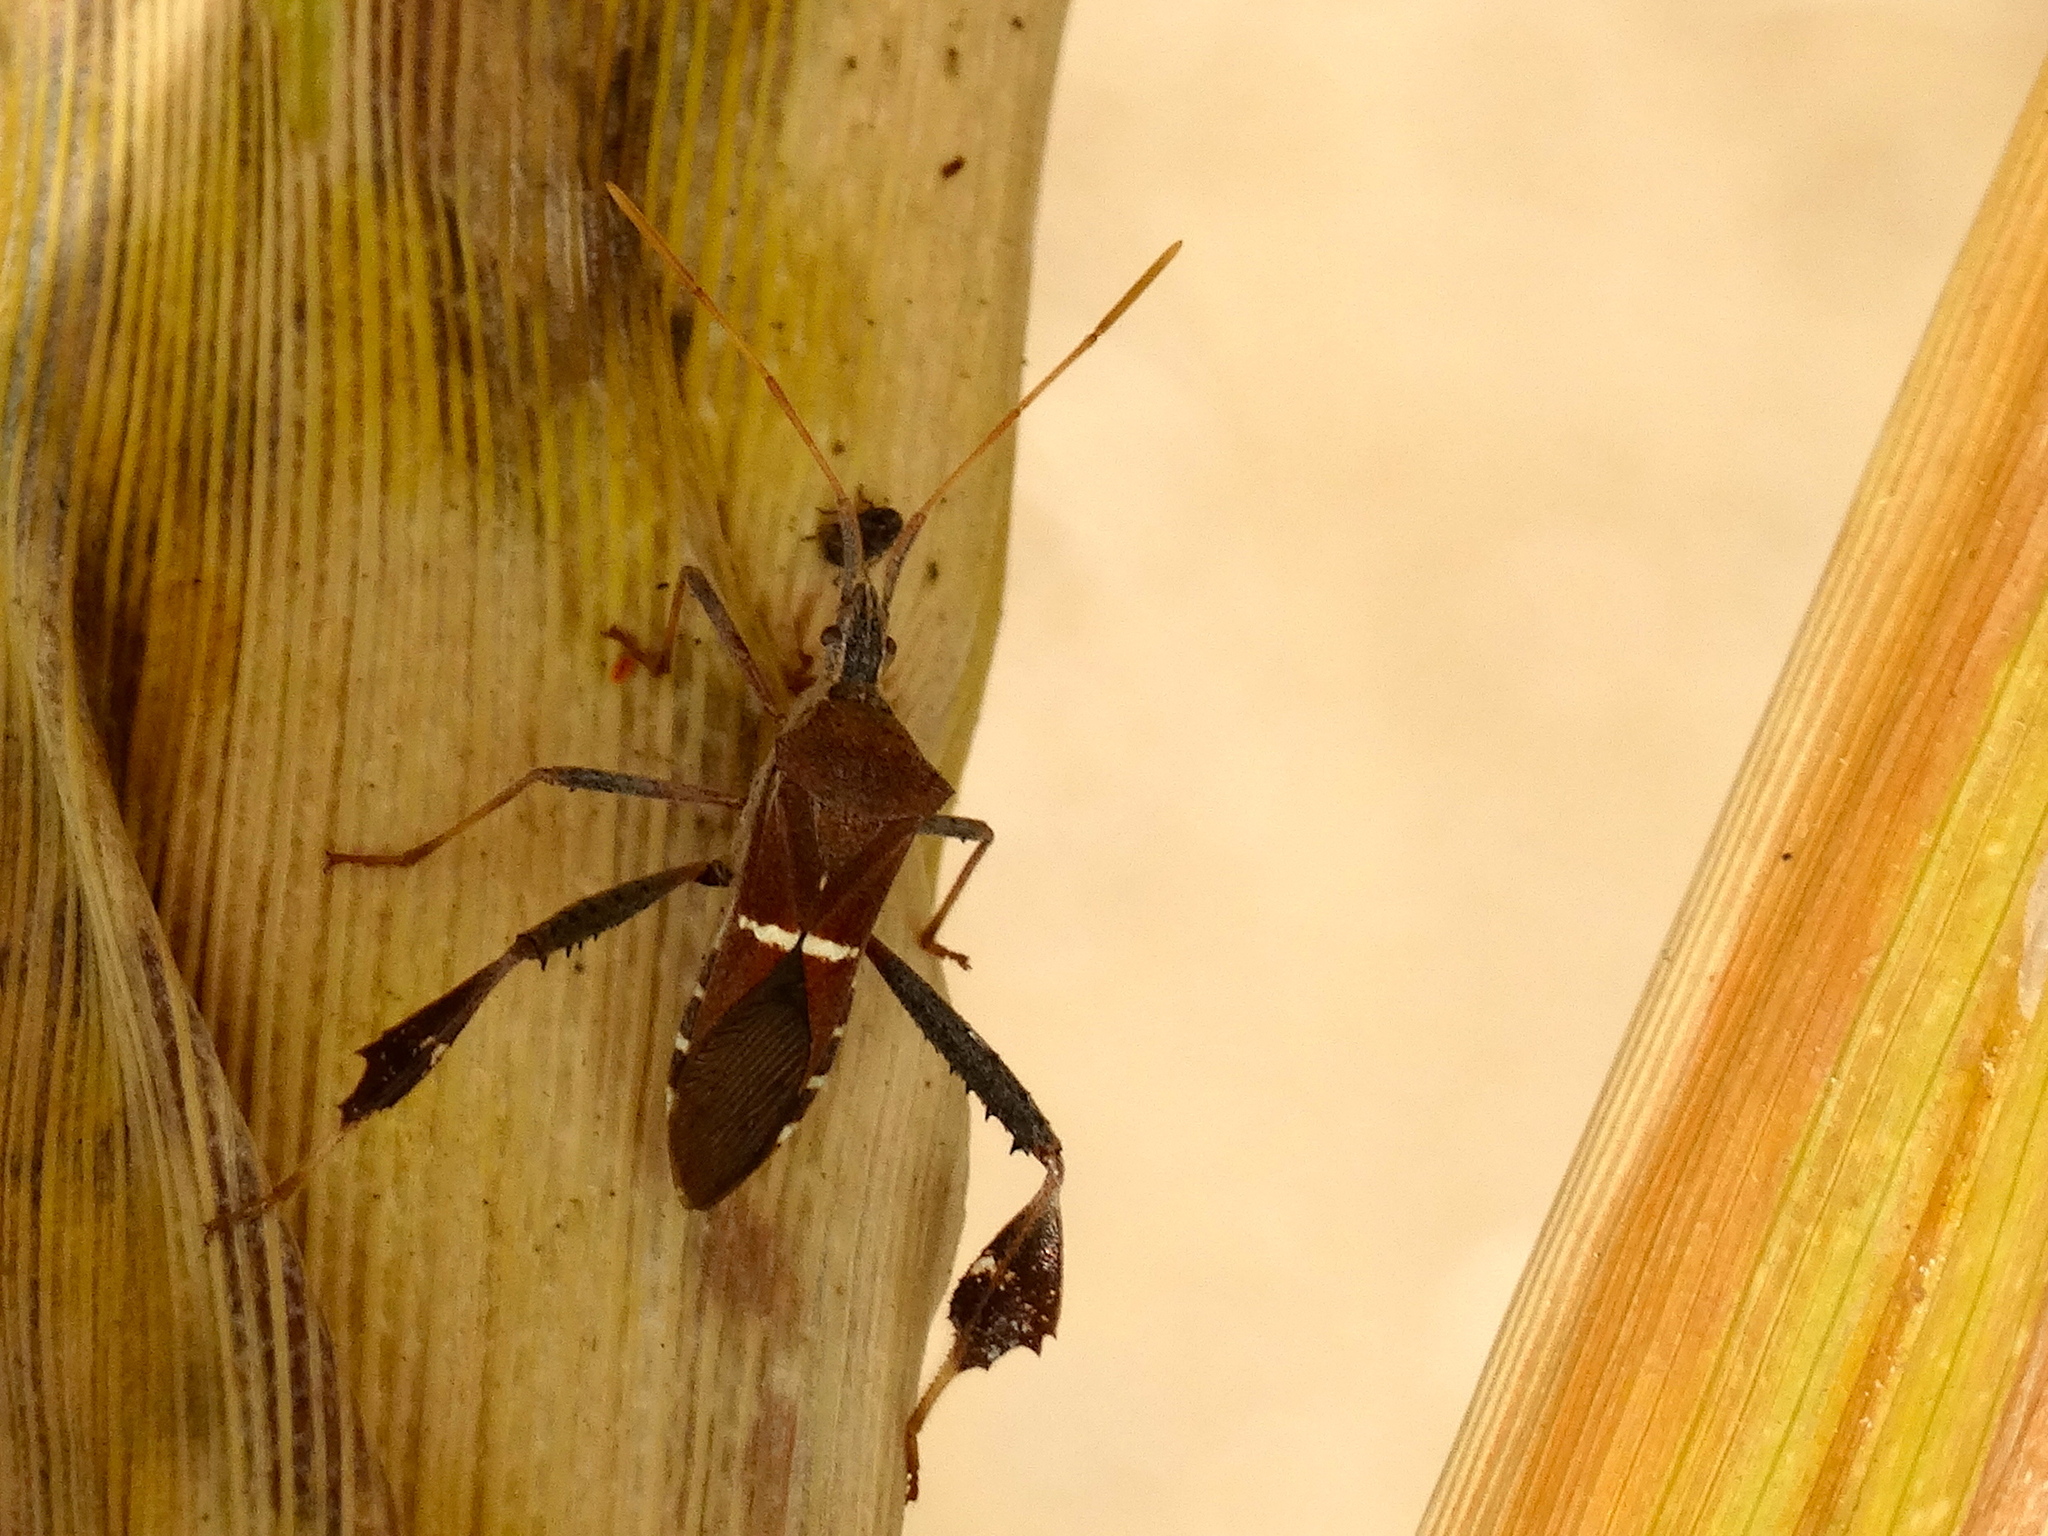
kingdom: Animalia
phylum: Arthropoda
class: Insecta
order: Hemiptera
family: Coreidae
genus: Leptoglossus
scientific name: Leptoglossus phyllopus
